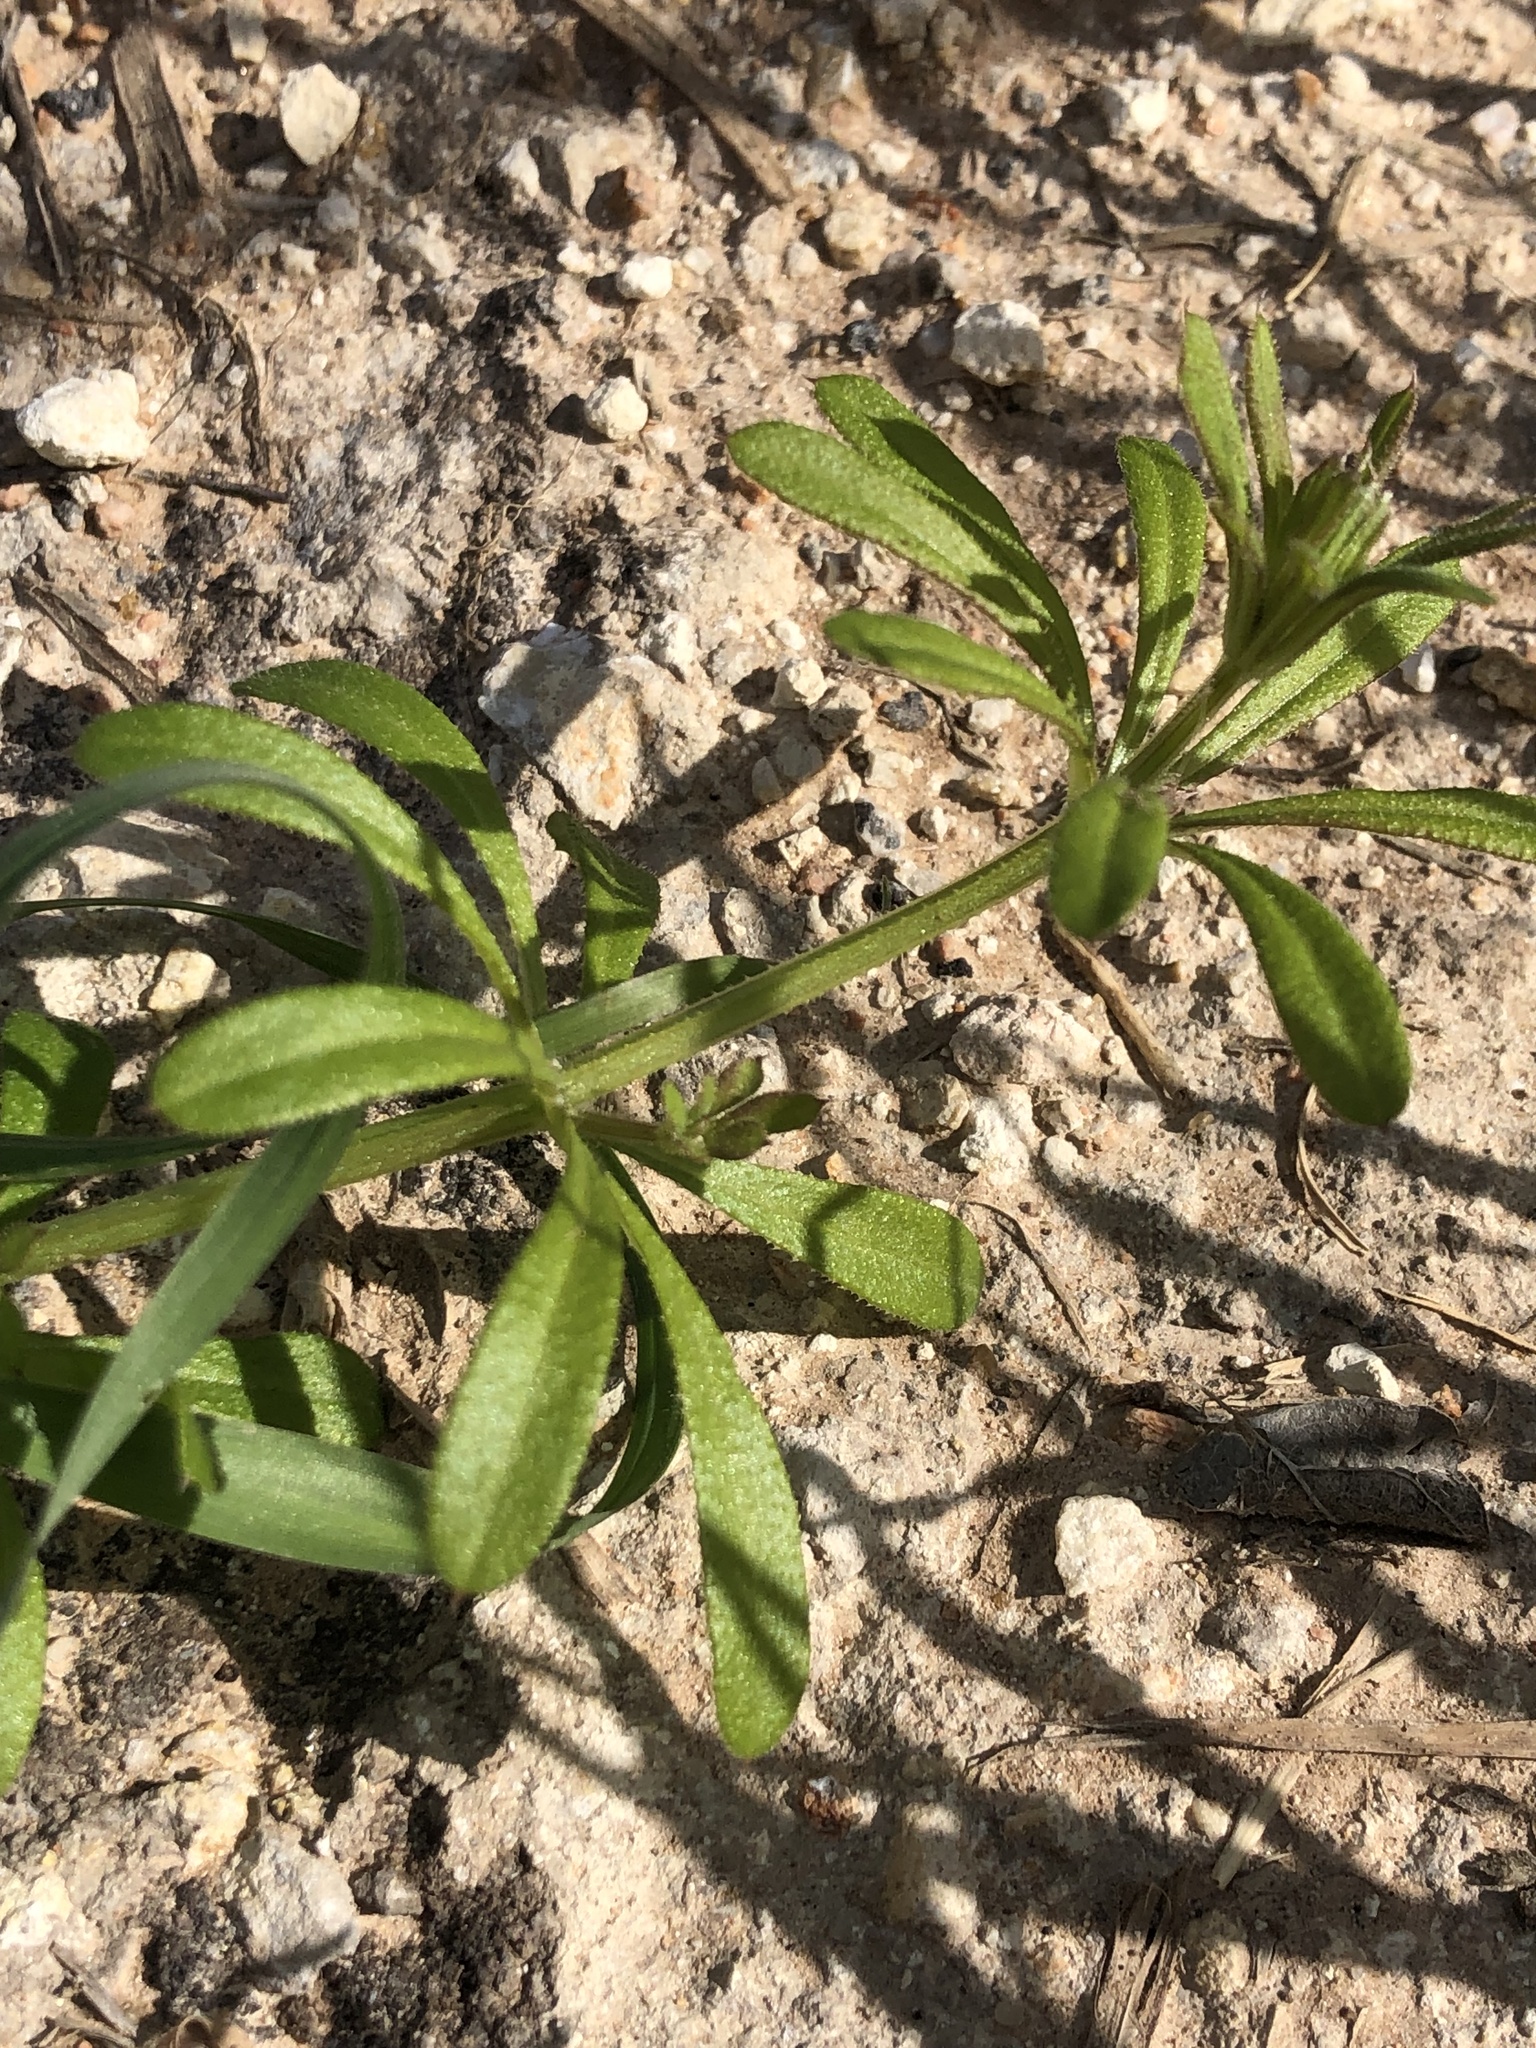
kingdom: Plantae
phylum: Tracheophyta
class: Magnoliopsida
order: Gentianales
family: Rubiaceae
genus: Galium
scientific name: Galium aparine
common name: Cleavers
